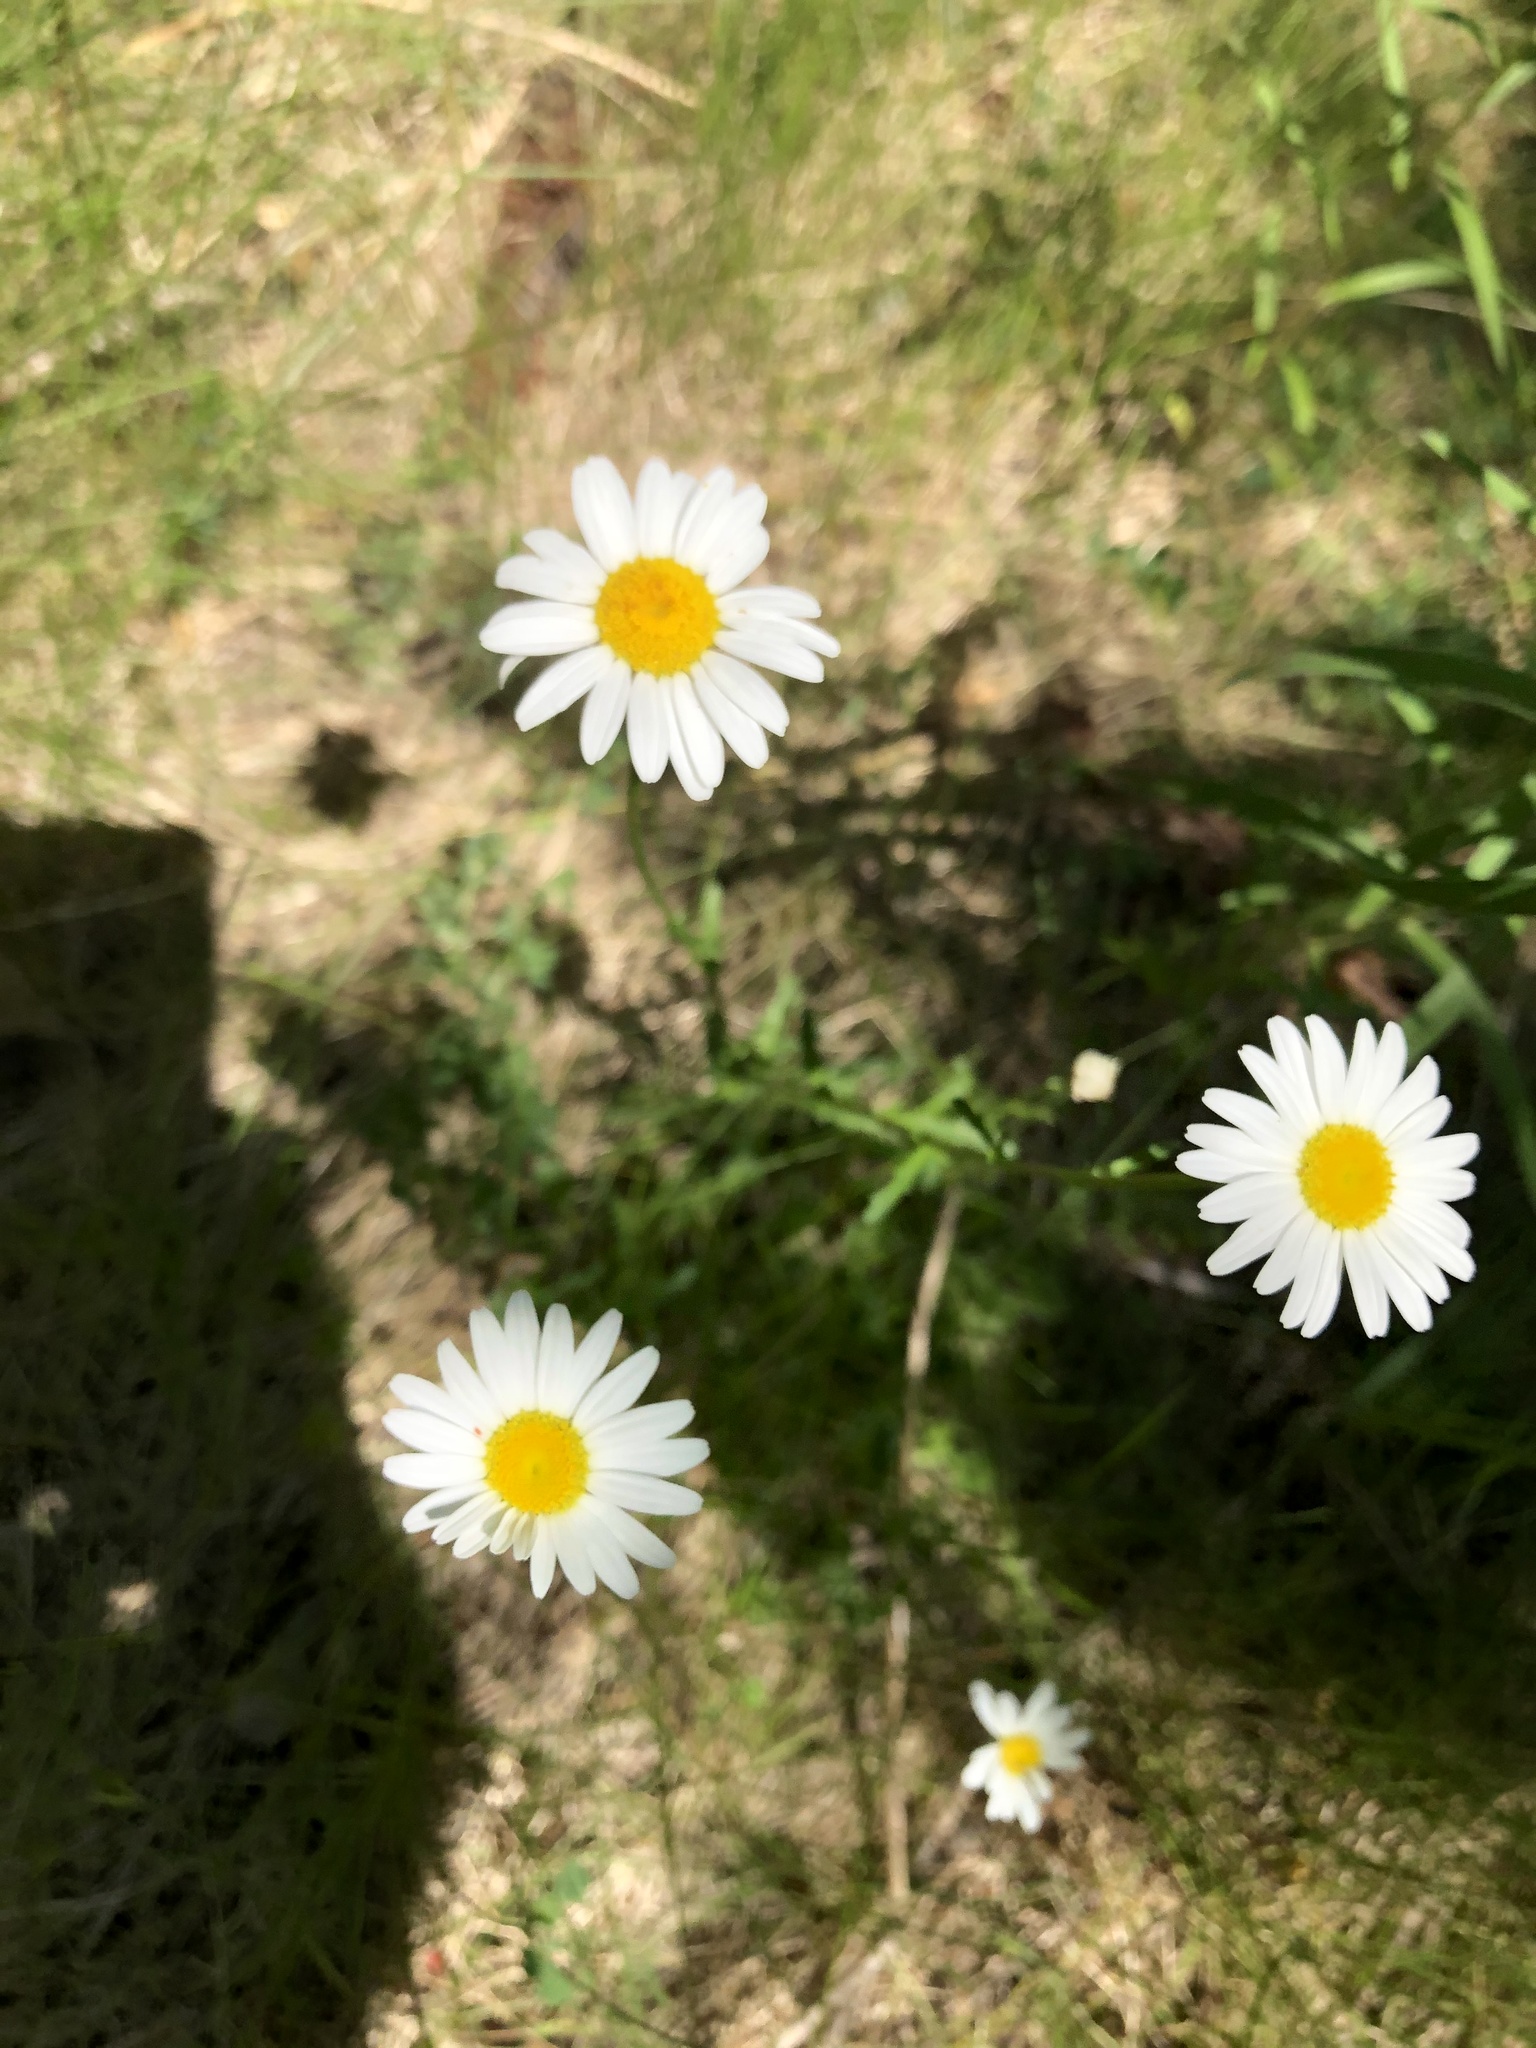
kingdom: Plantae
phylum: Tracheophyta
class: Magnoliopsida
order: Asterales
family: Asteraceae
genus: Leucanthemum
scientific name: Leucanthemum vulgare
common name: Oxeye daisy
